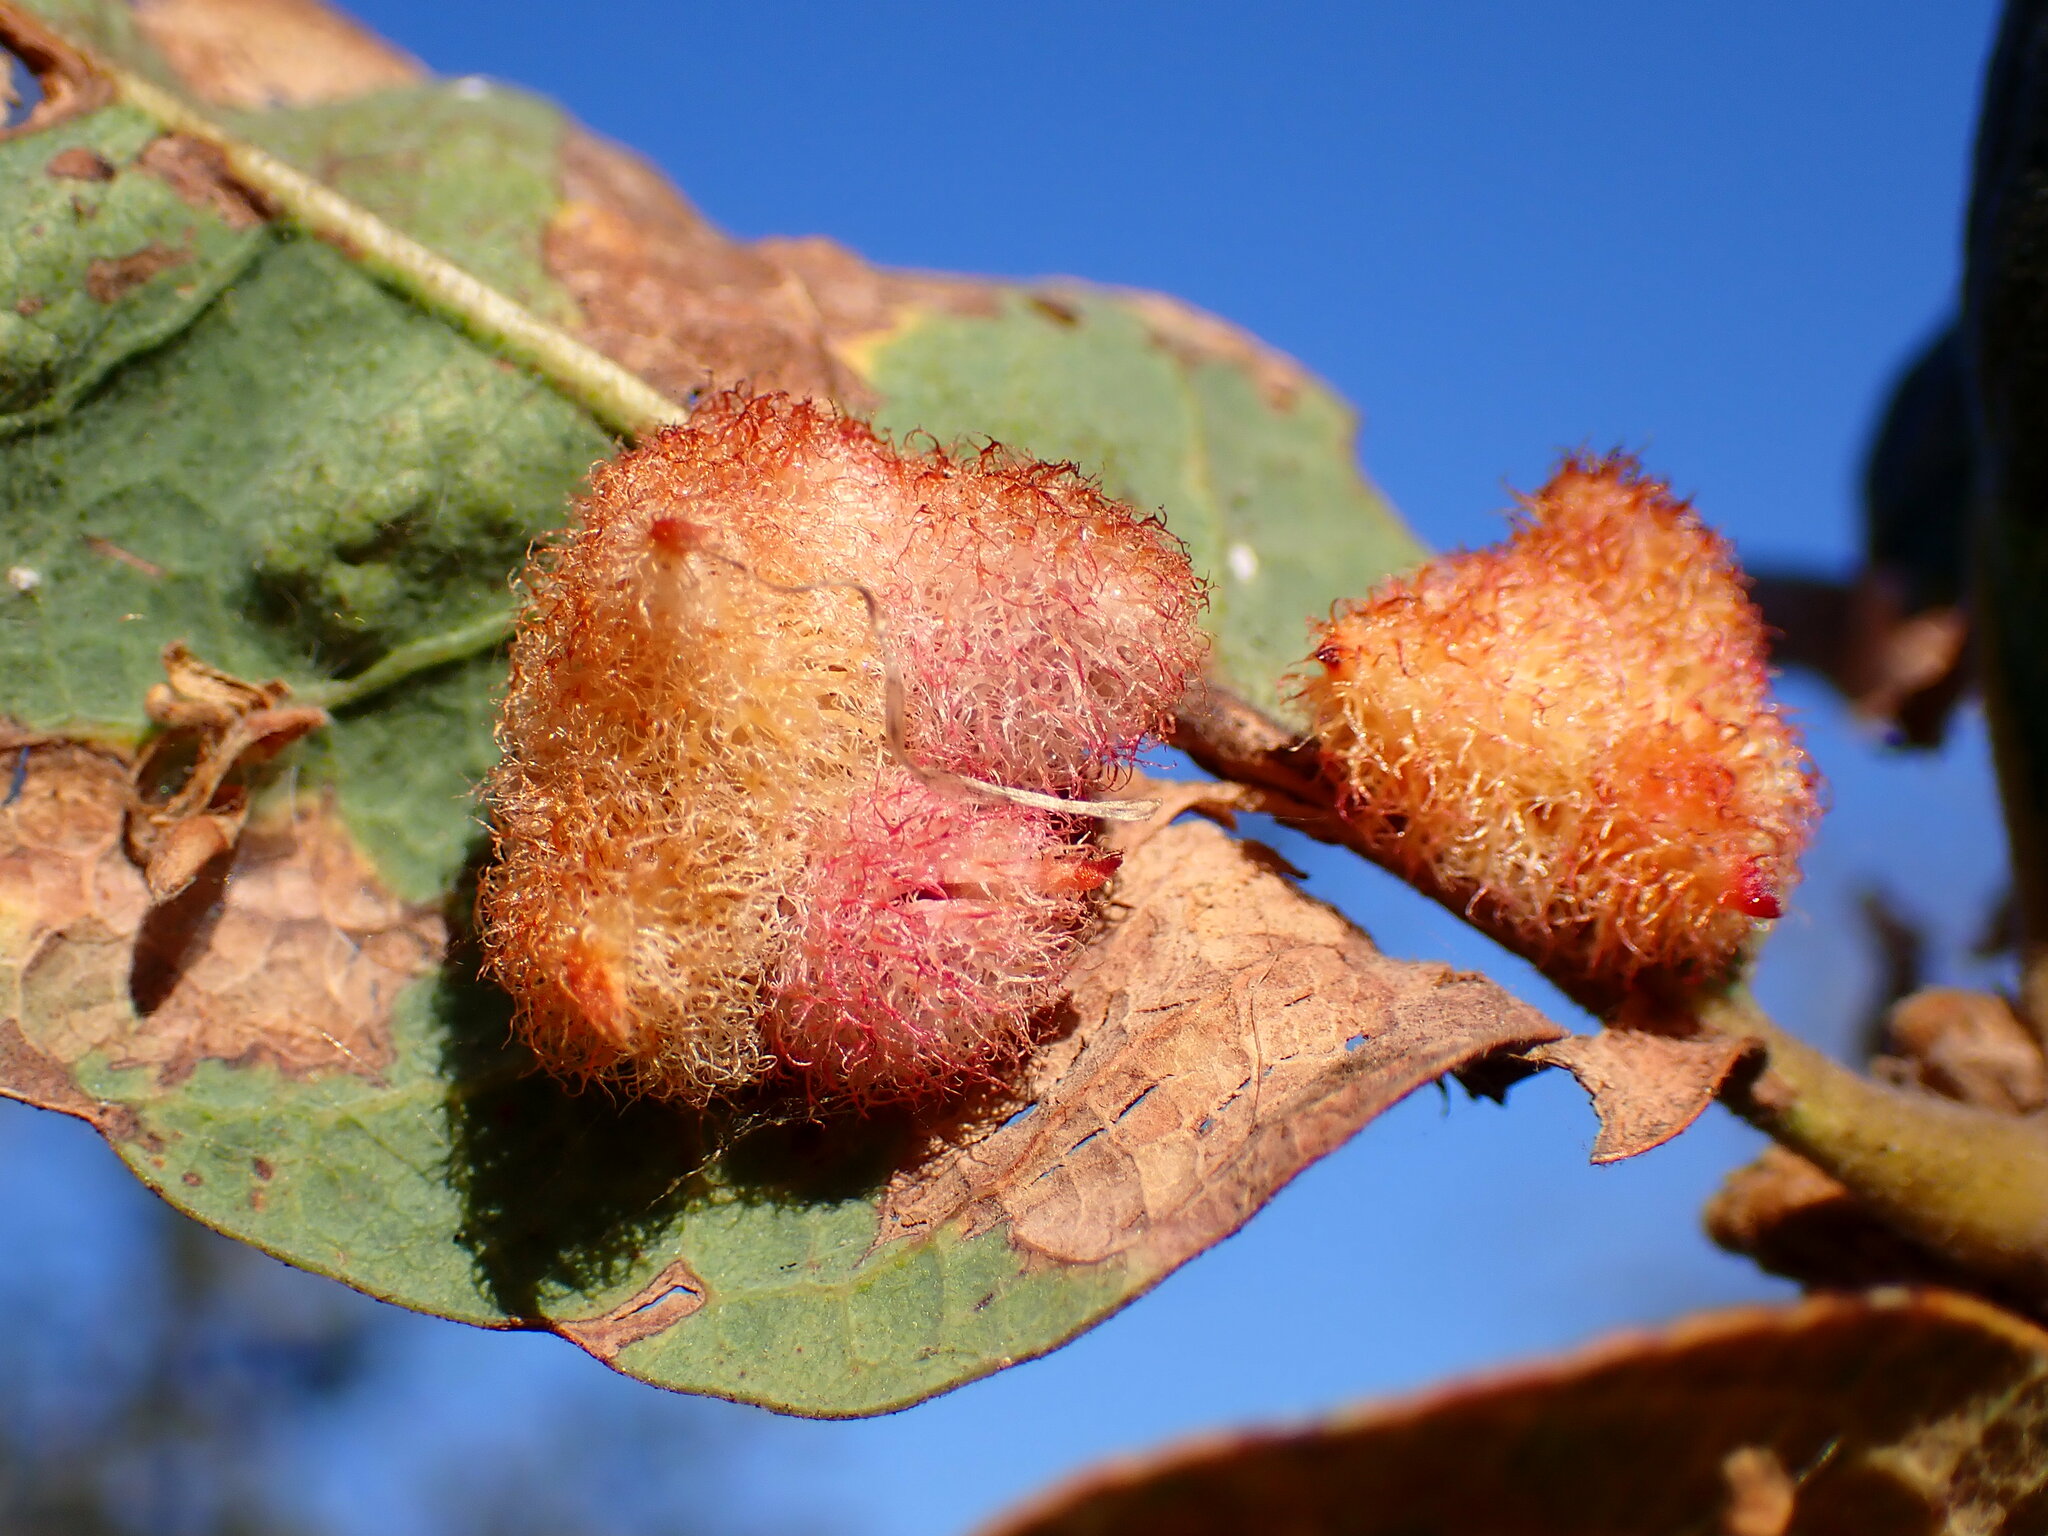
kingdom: Animalia
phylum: Arthropoda
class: Insecta
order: Hymenoptera
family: Cynipidae
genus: Andricus
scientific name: Andricus
